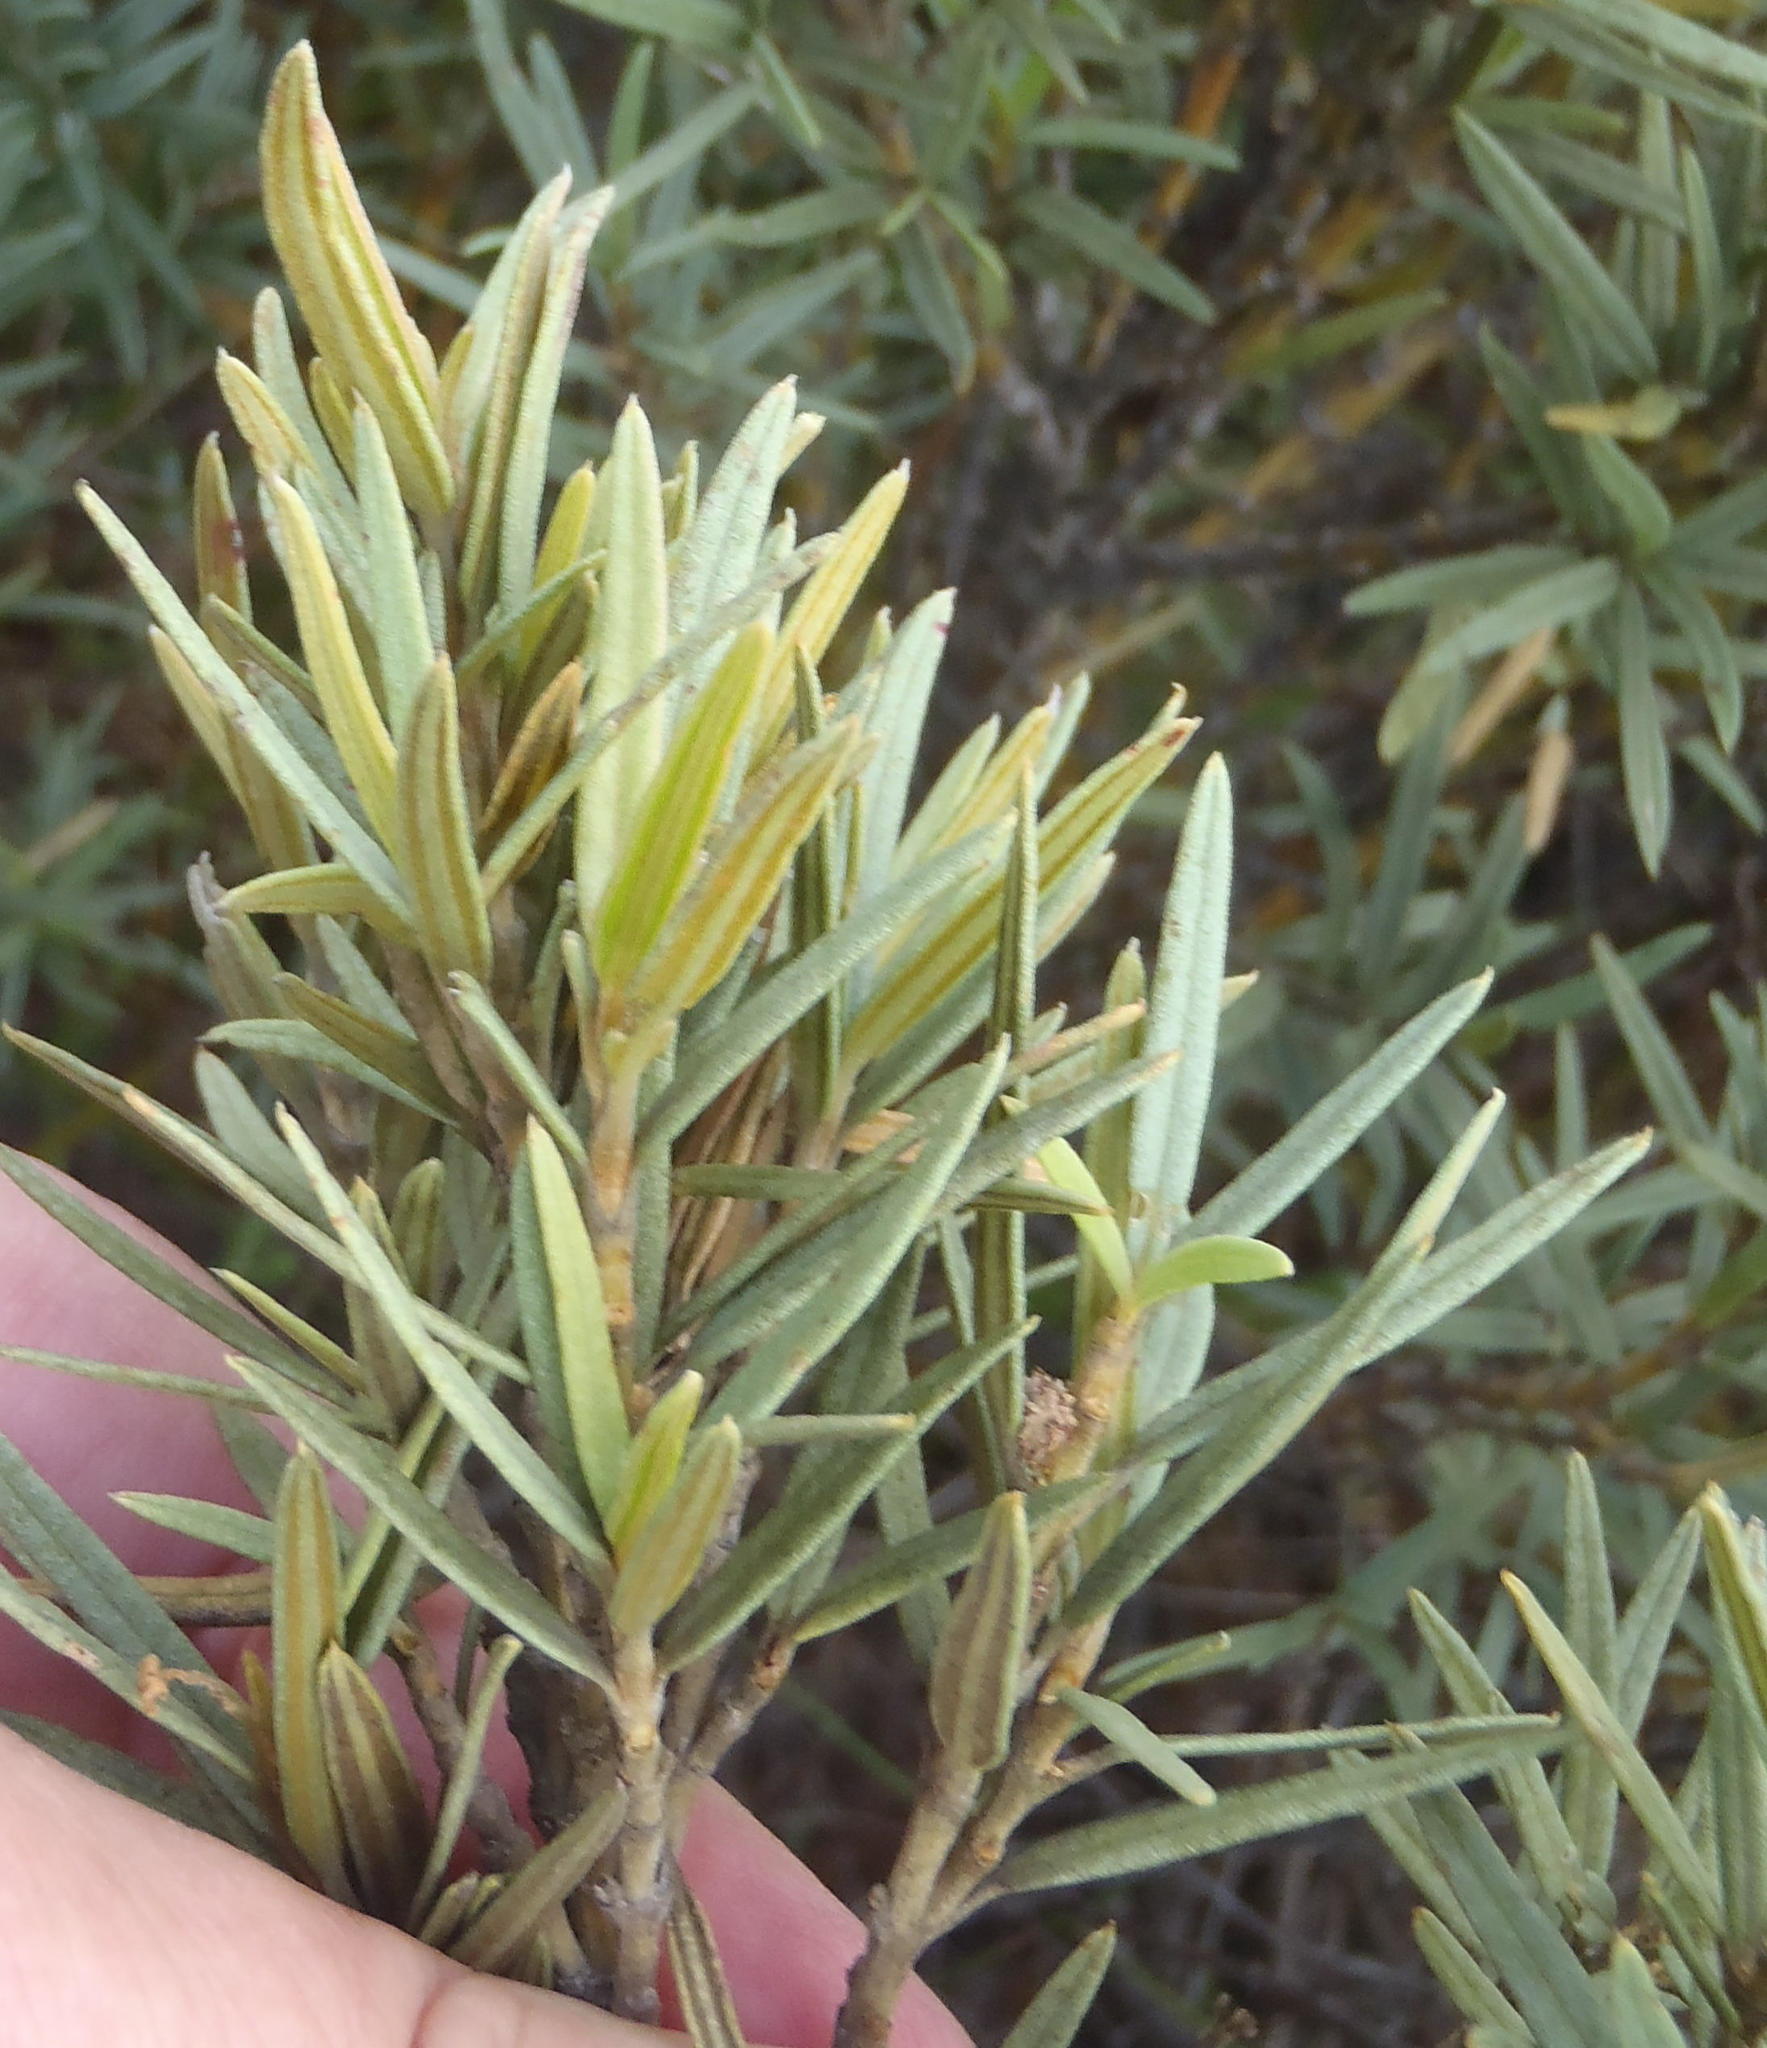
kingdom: Plantae
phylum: Tracheophyta
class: Magnoliopsida
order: Cornales
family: Grubbiaceae
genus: Grubbia
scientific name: Grubbia tomentosa
